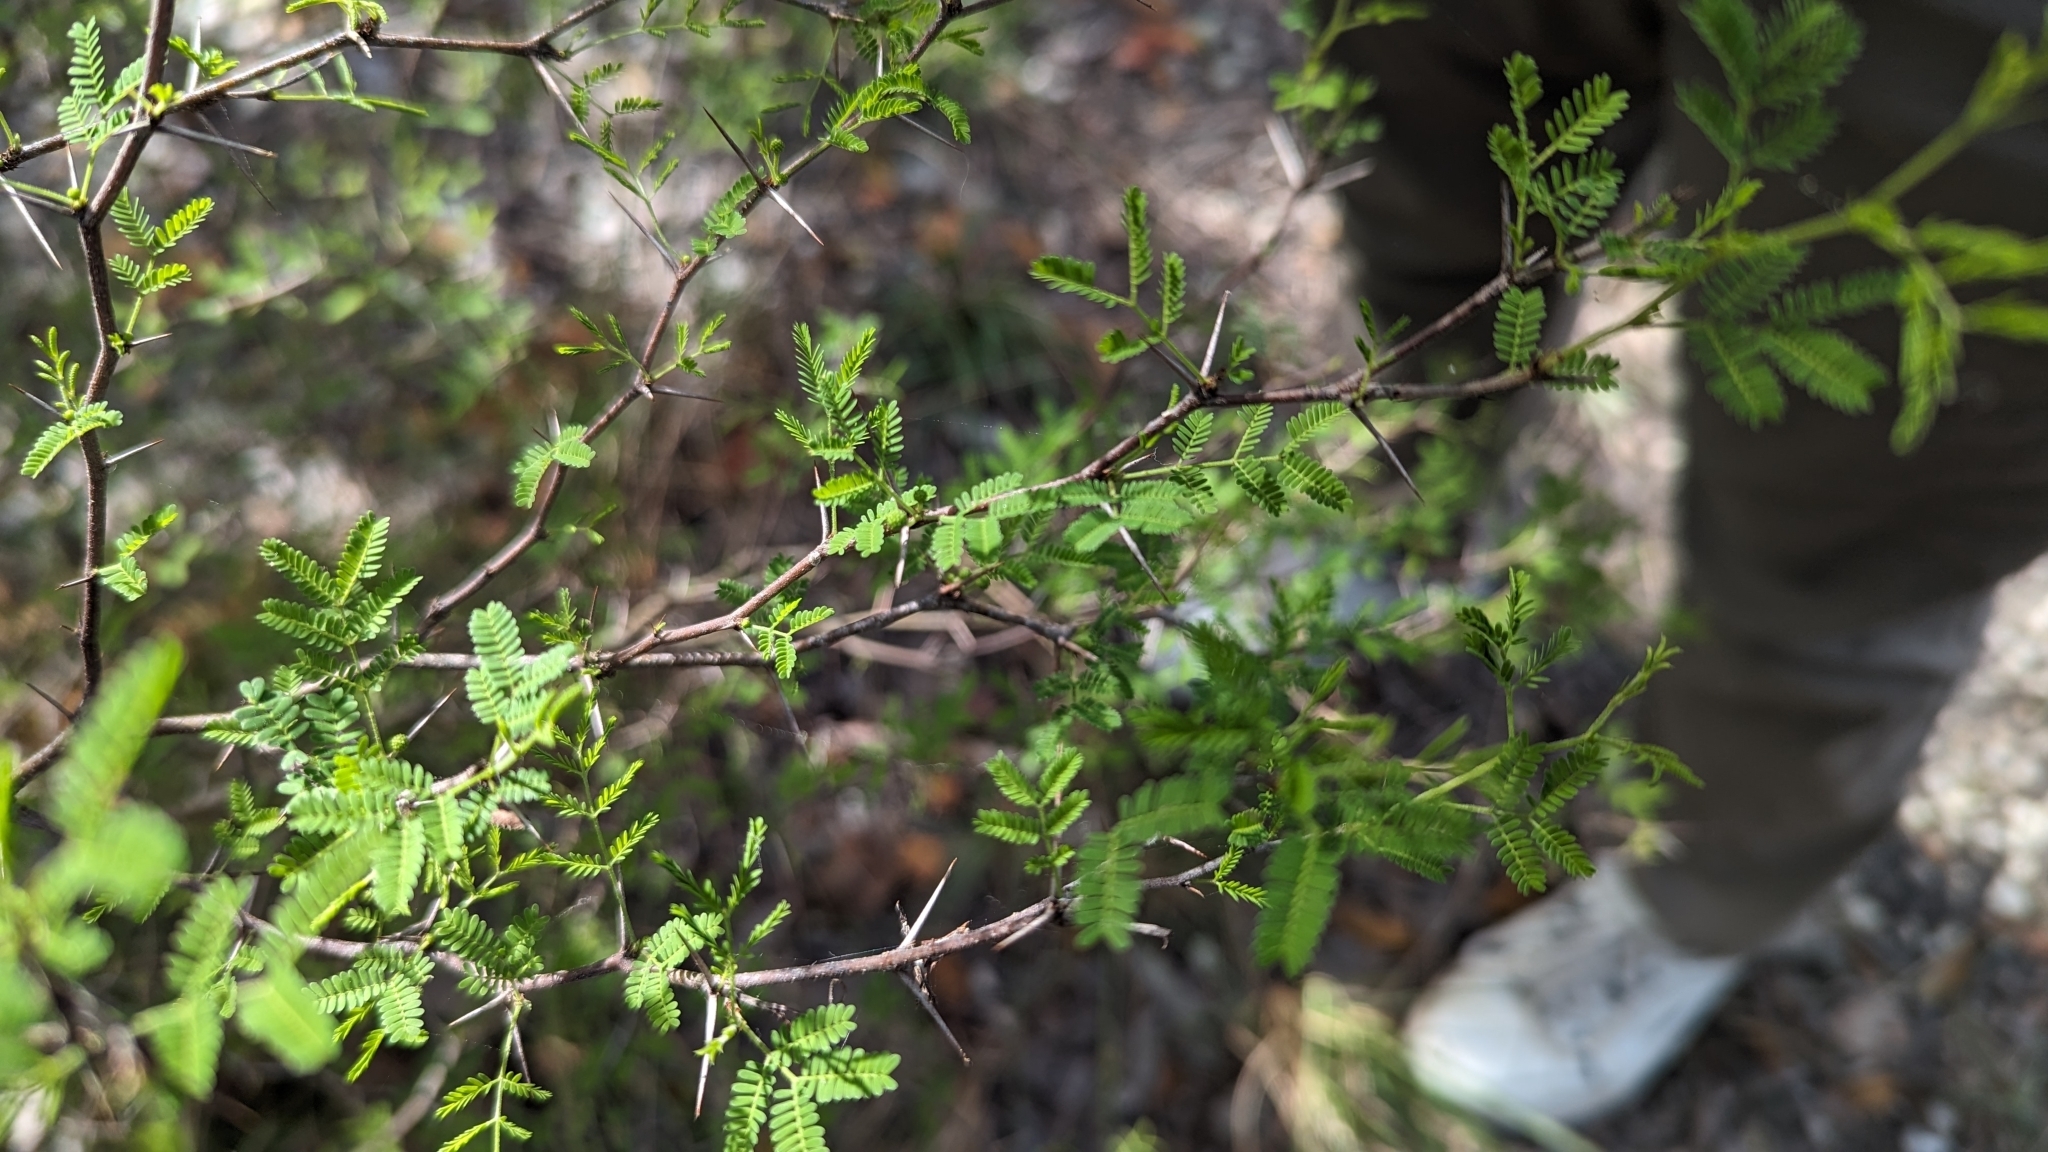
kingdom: Plantae
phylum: Tracheophyta
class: Magnoliopsida
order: Fabales
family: Fabaceae
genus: Vachellia
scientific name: Vachellia farnesiana
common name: Sweet acacia
